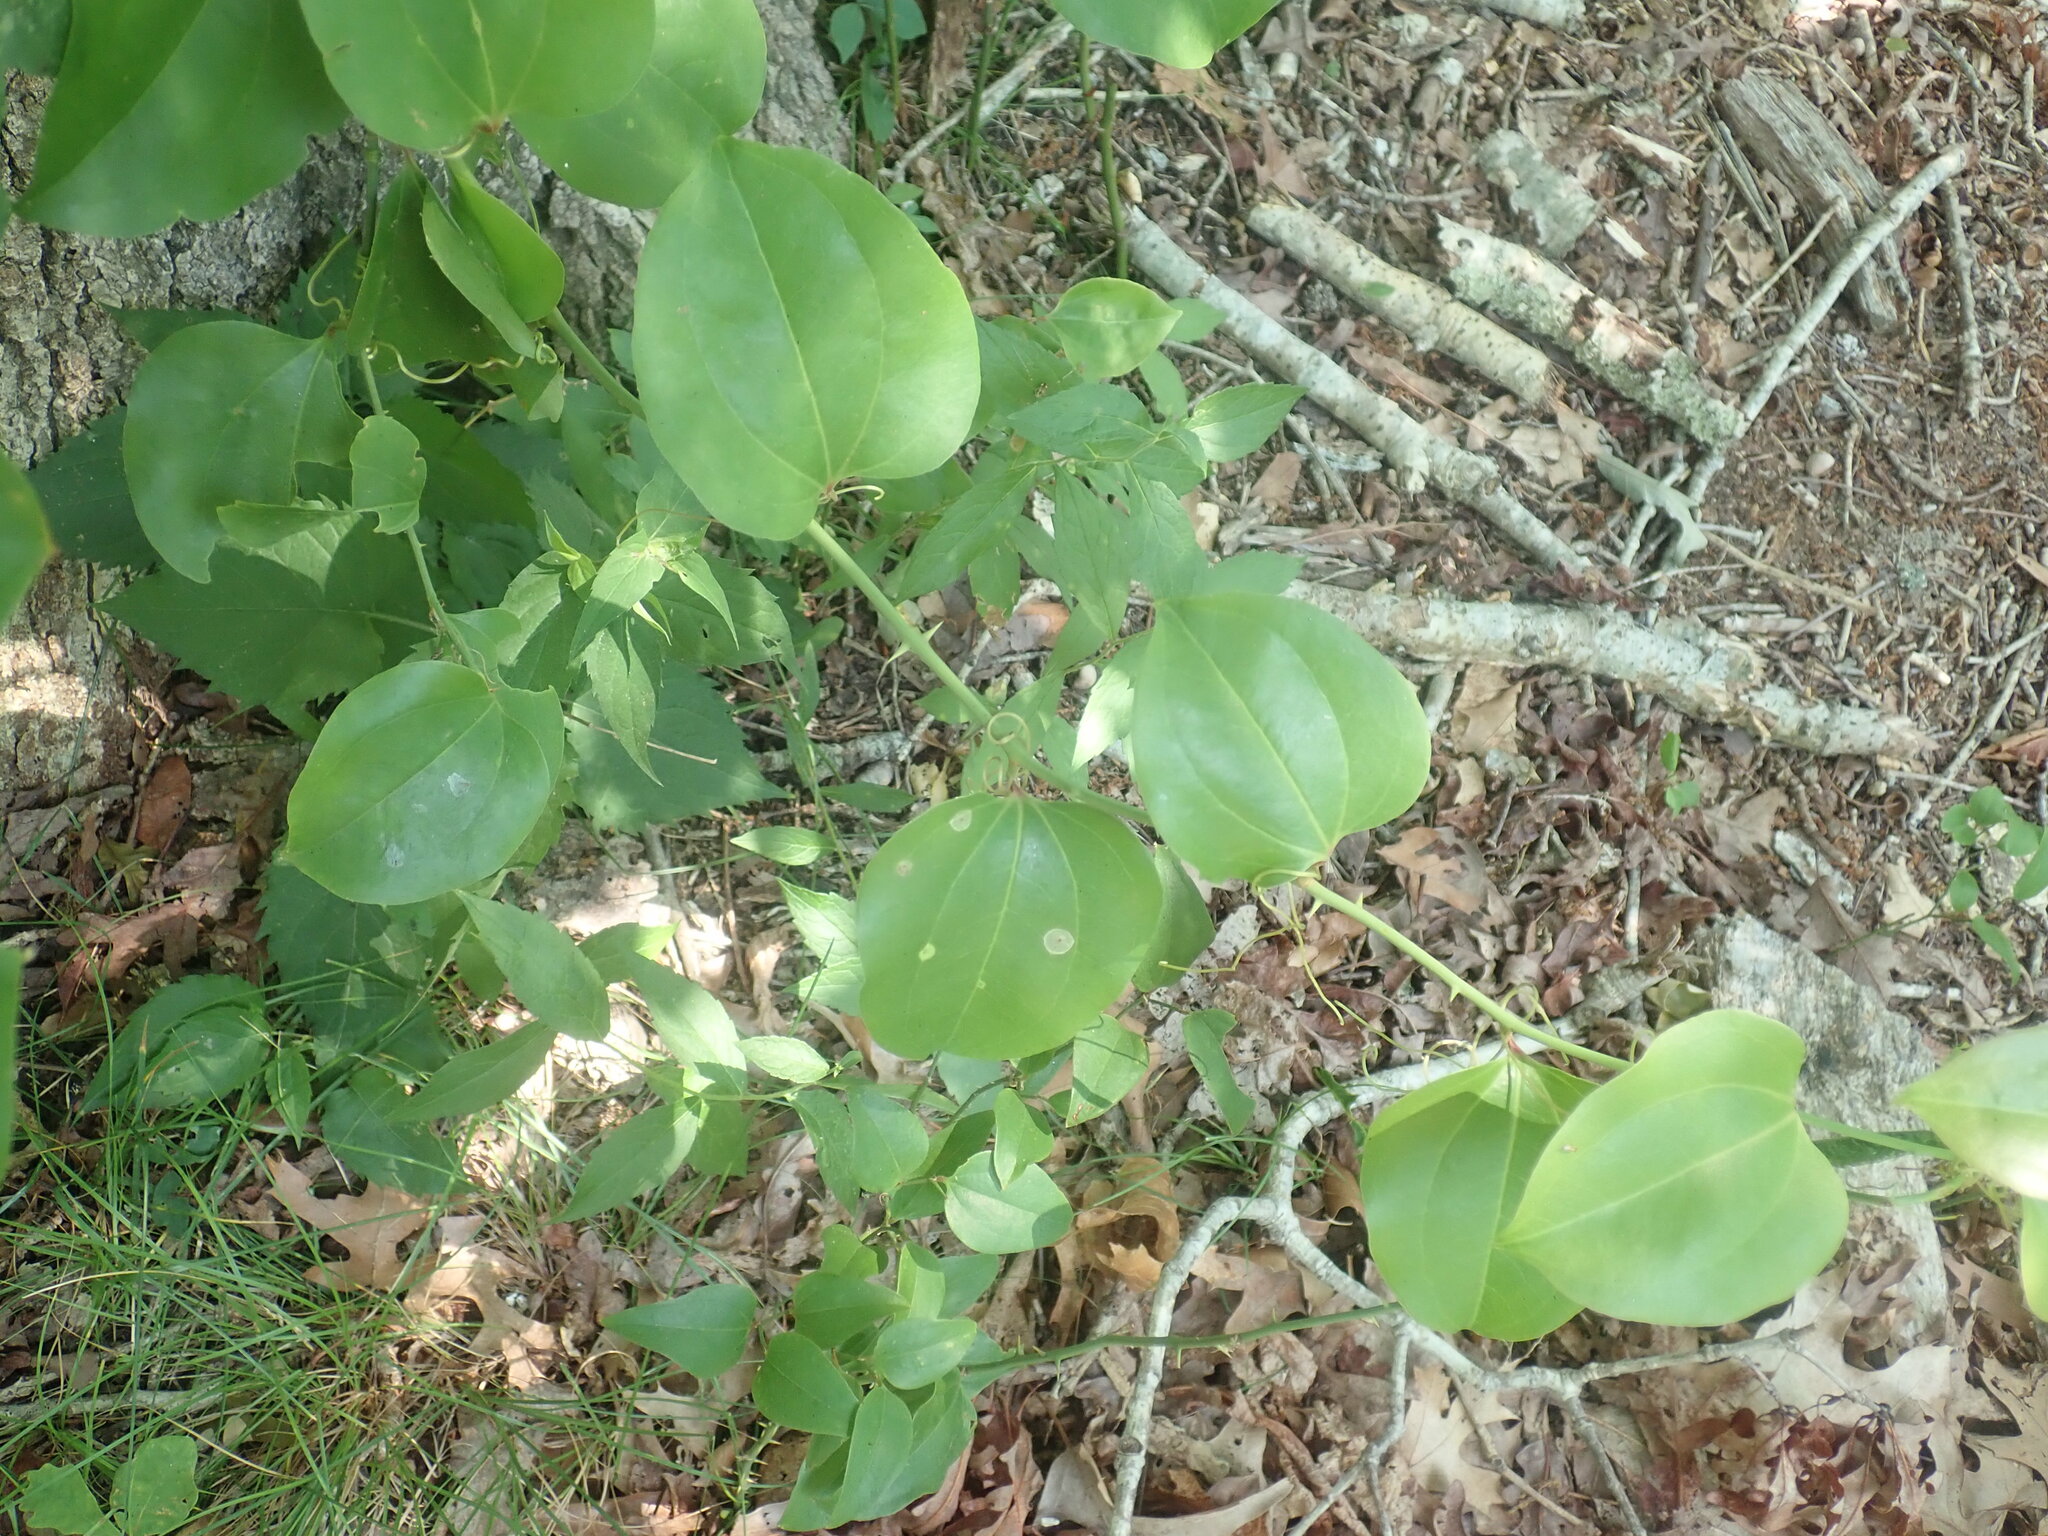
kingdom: Plantae
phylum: Tracheophyta
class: Liliopsida
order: Liliales
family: Smilacaceae
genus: Smilax
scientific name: Smilax rotundifolia
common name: Bullbriar
